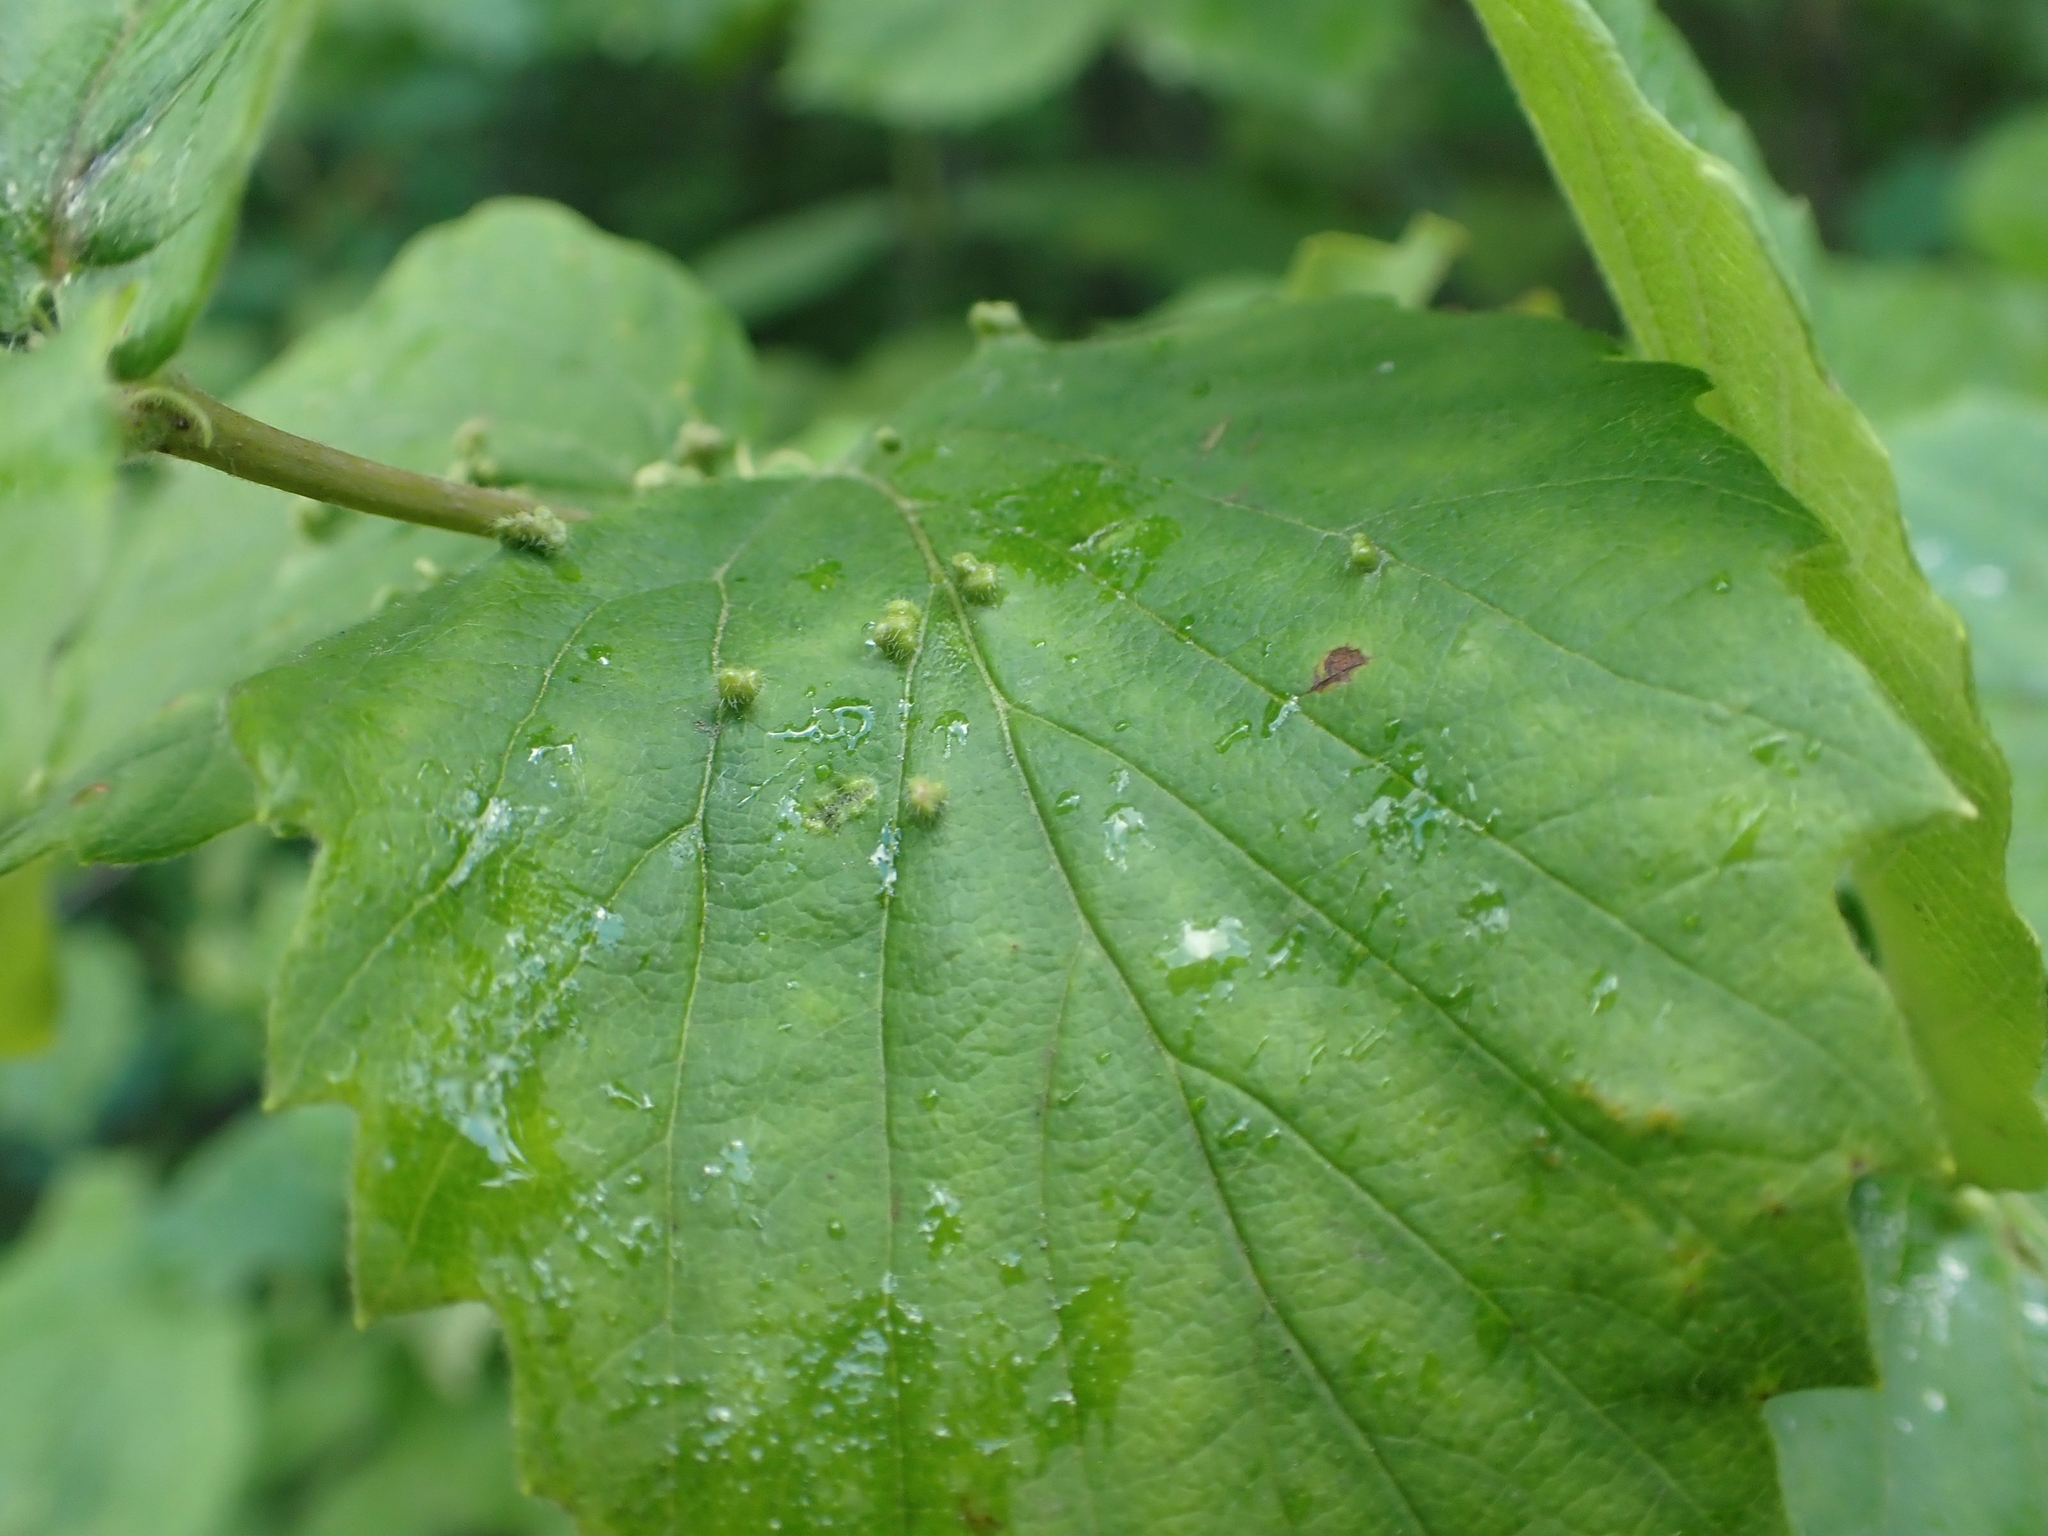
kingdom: Animalia
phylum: Arthropoda
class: Arachnida
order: Trombidiformes
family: Eriophyidae
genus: Eriophyes
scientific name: Eriophyes
